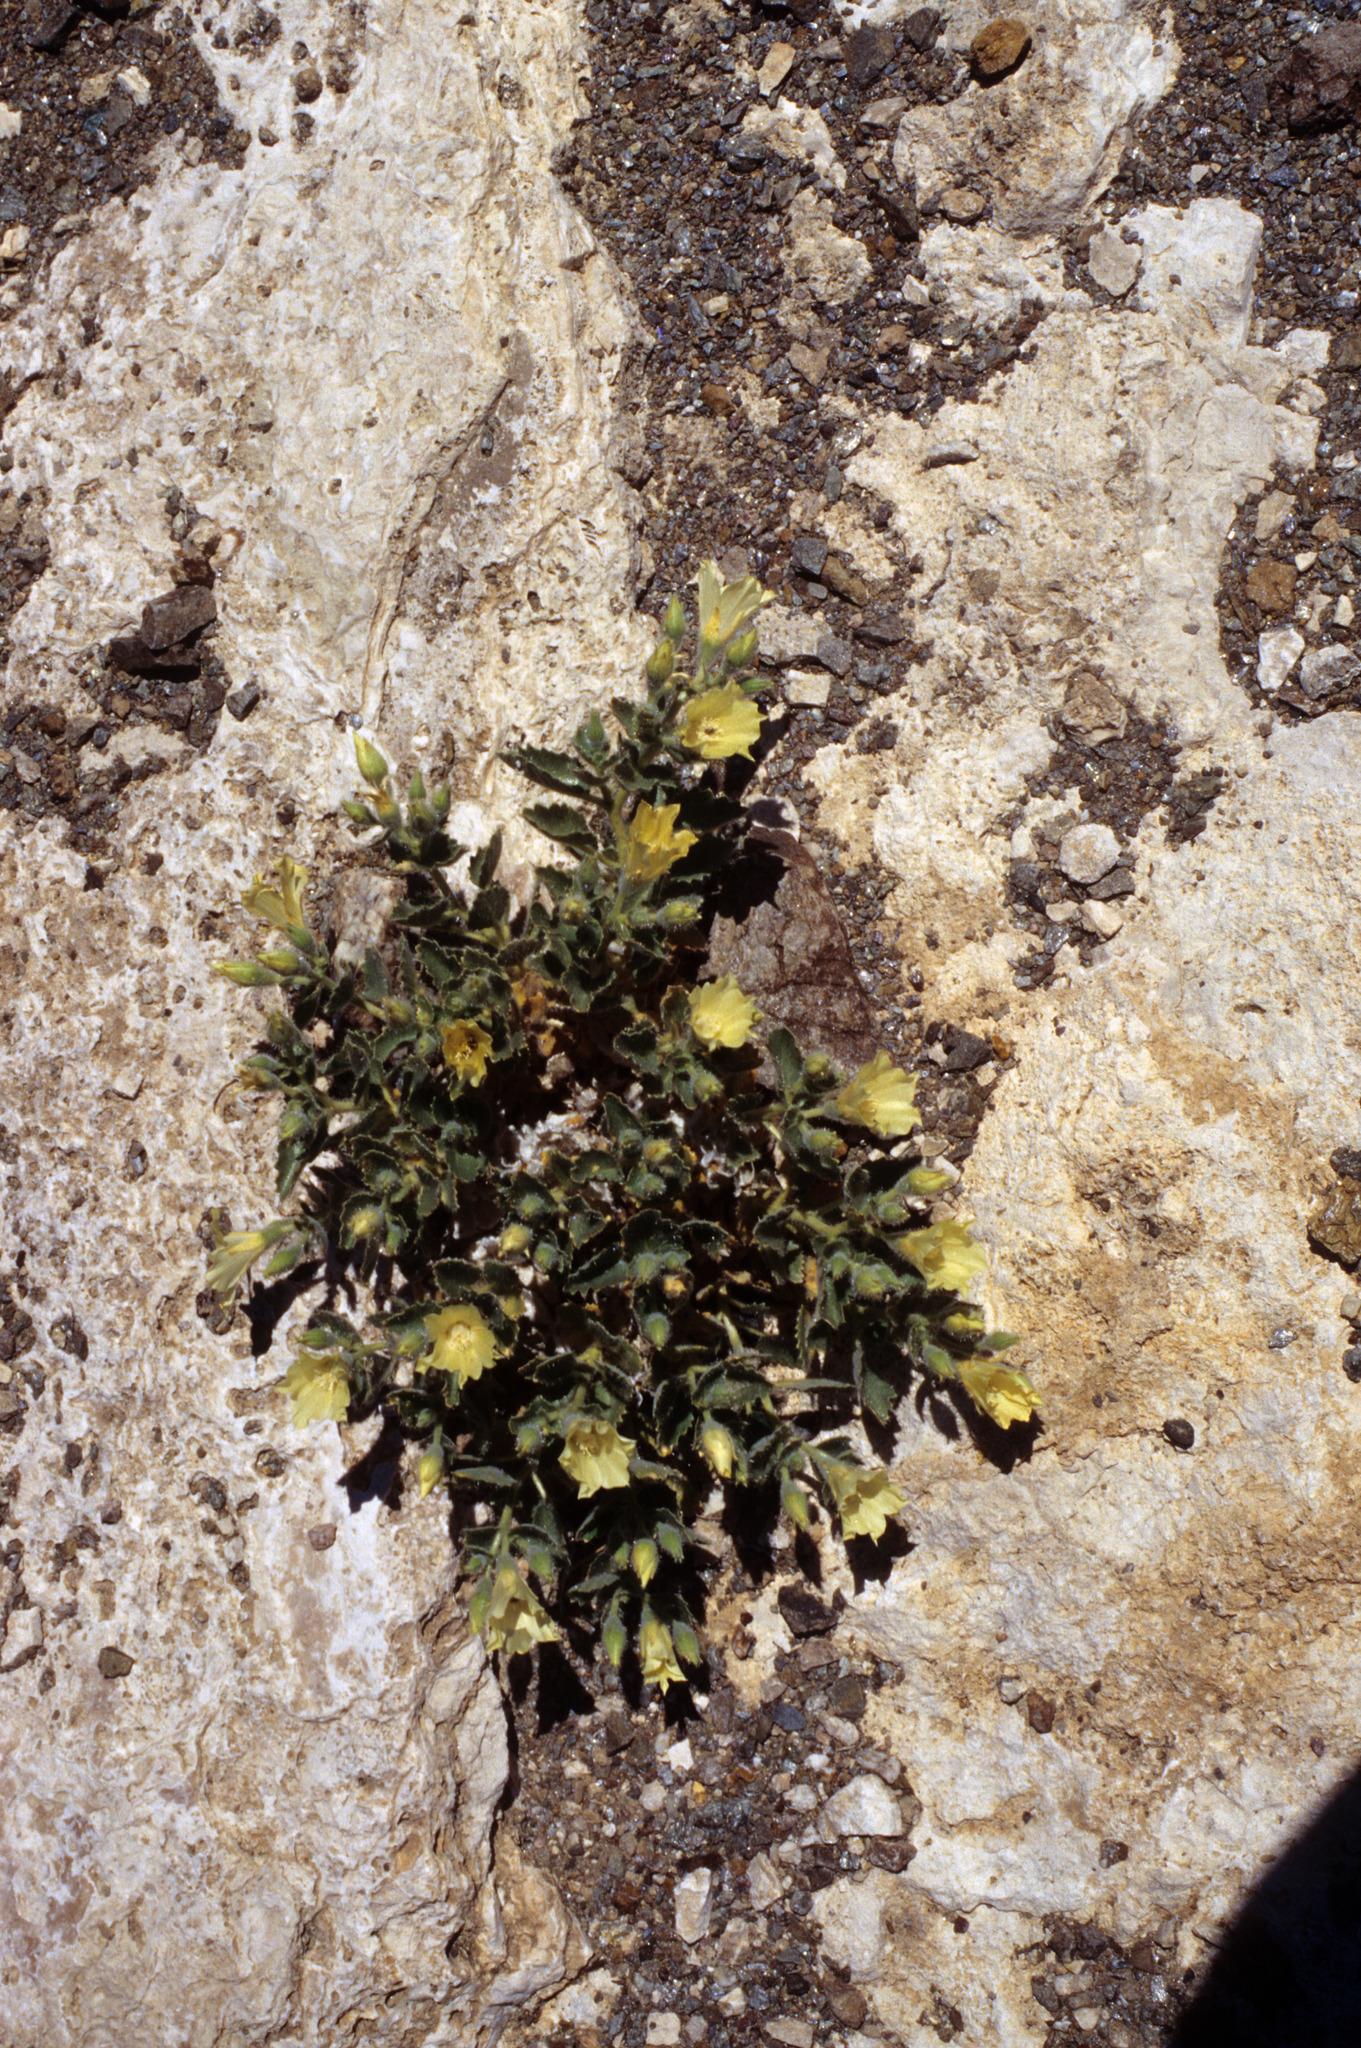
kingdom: Plantae
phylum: Tracheophyta
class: Magnoliopsida
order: Cornales
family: Loasaceae
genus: Eucnide
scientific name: Eucnide urens
